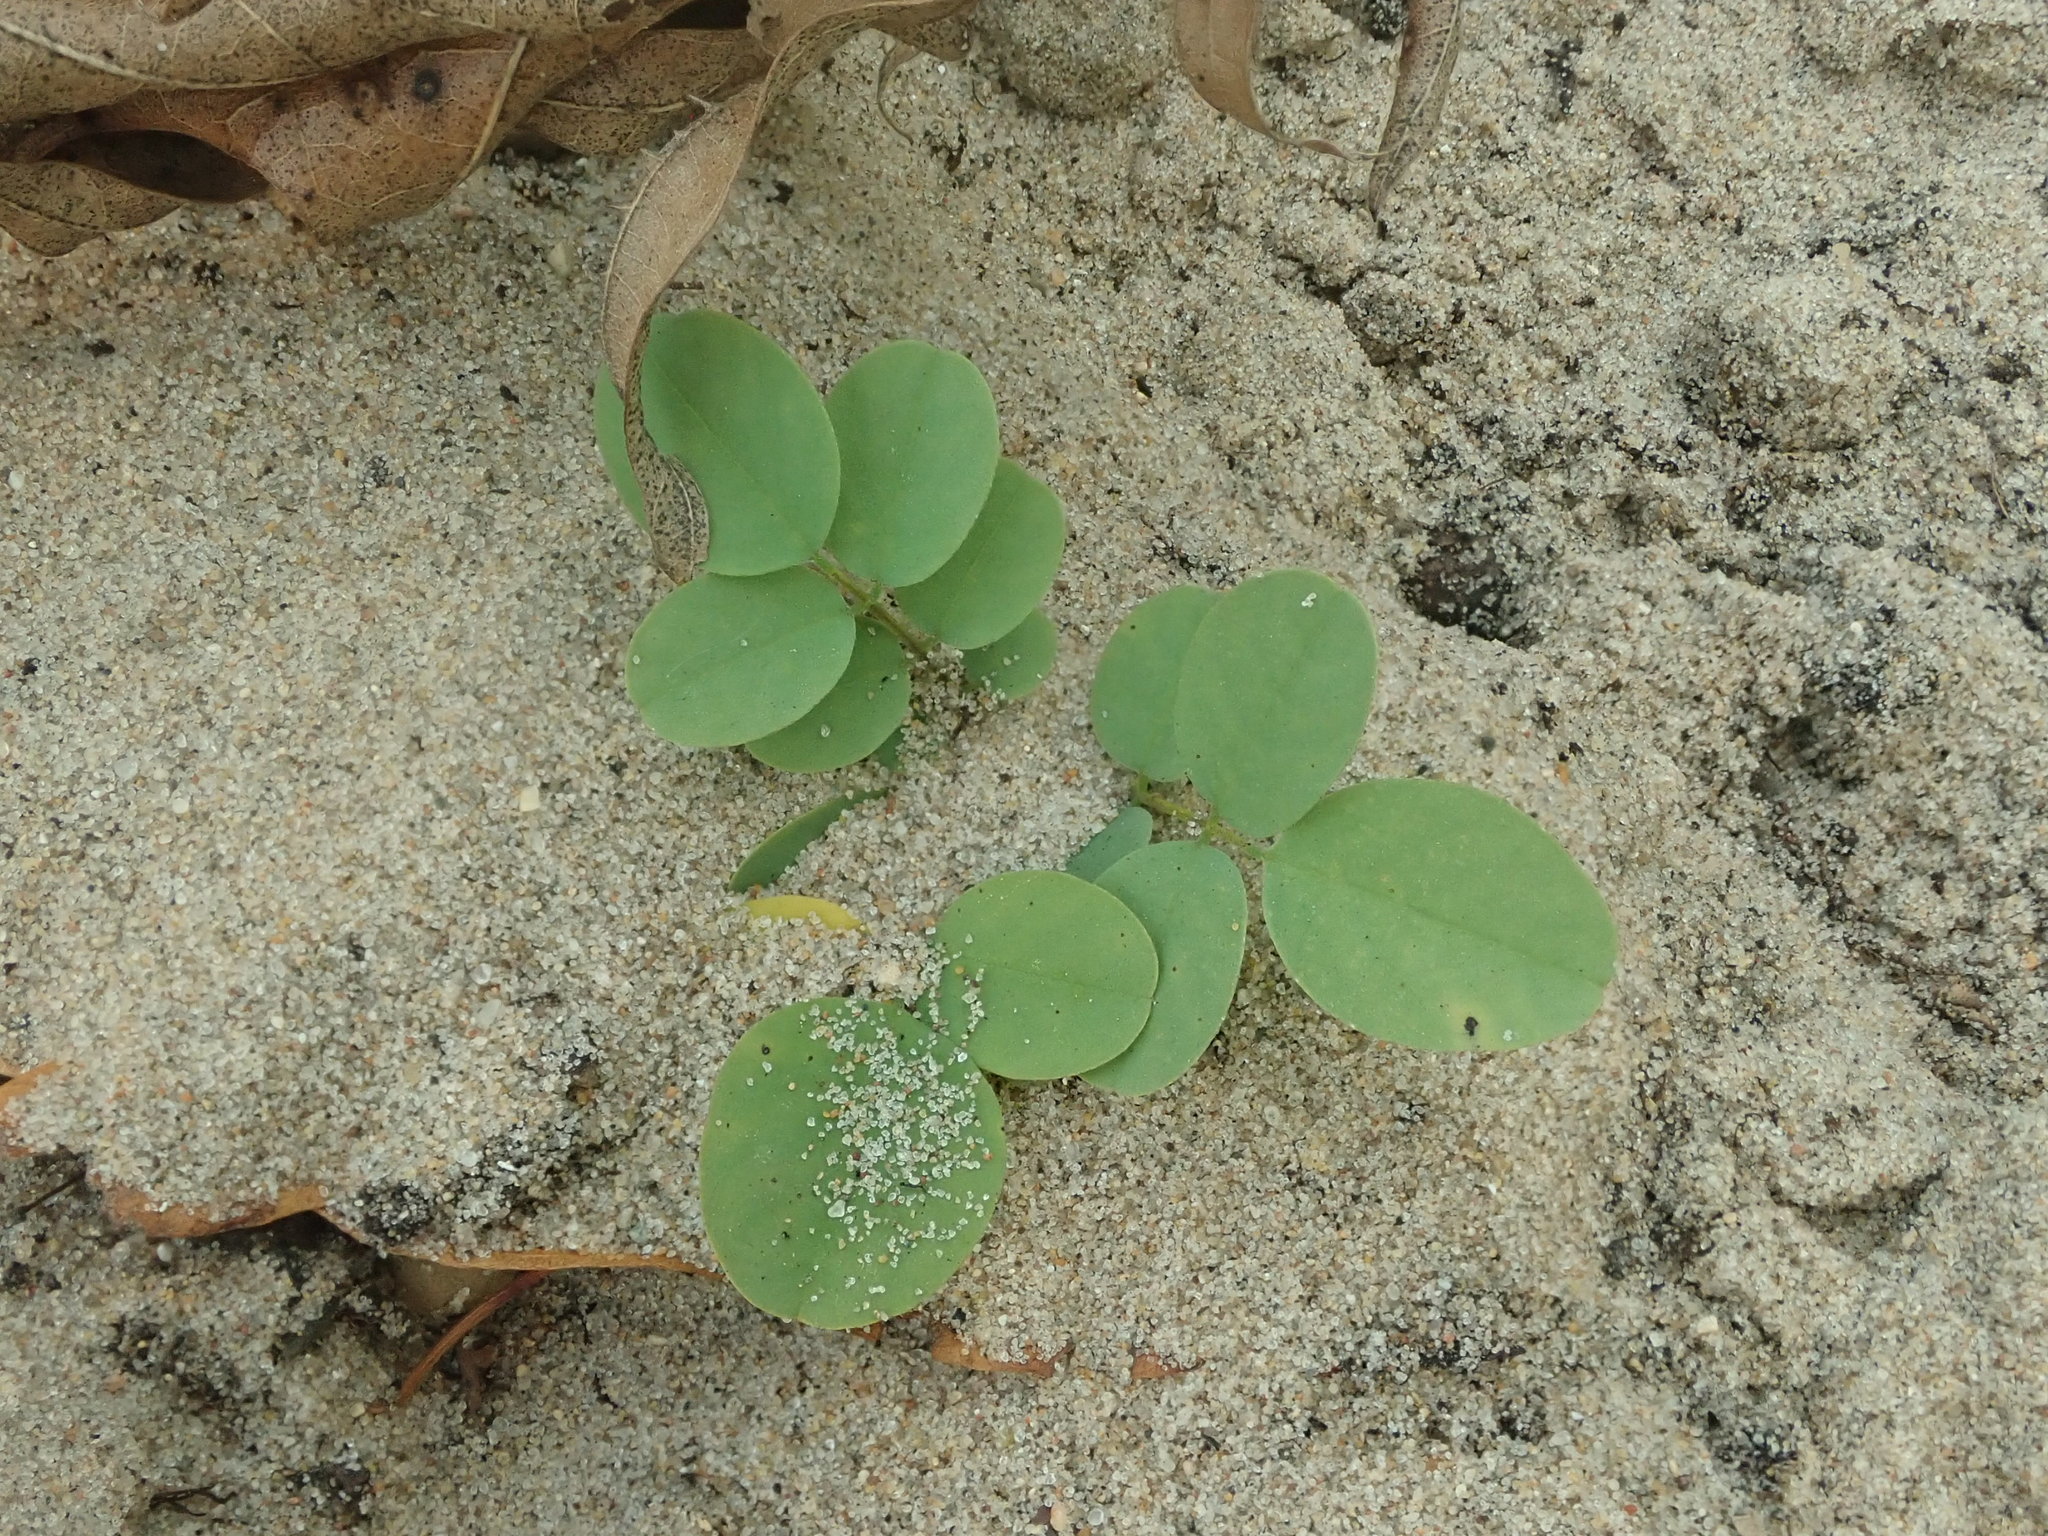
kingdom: Plantae
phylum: Tracheophyta
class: Magnoliopsida
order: Fabales
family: Fabaceae
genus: Lathyrus
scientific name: Lathyrus japonicus
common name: Sea pea
